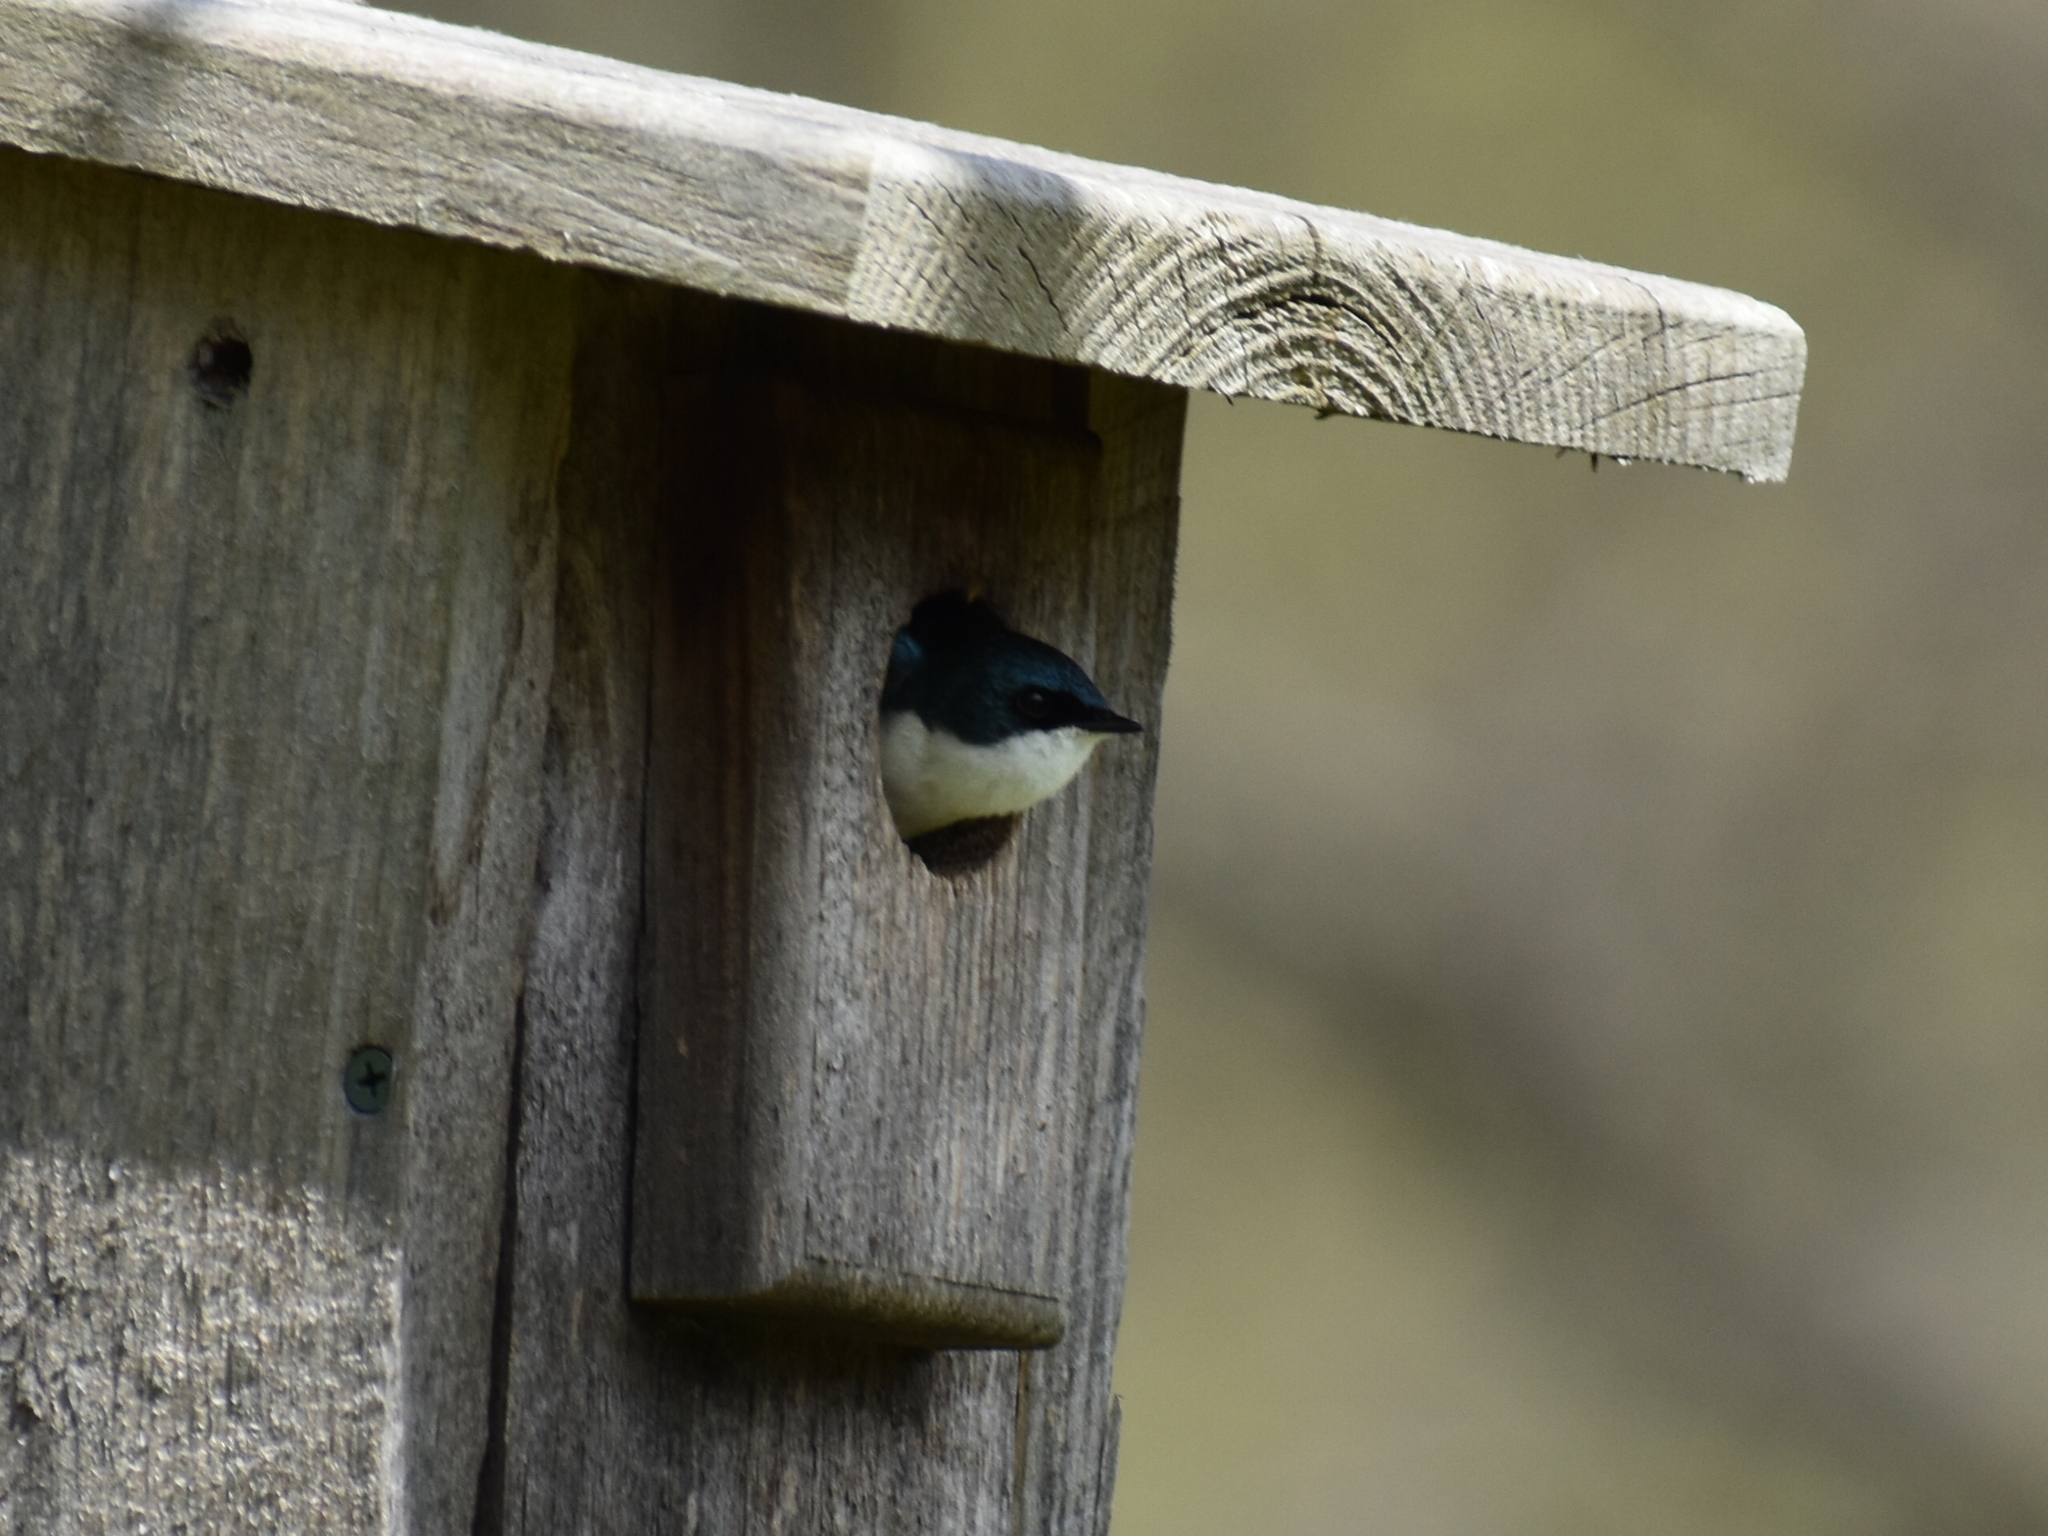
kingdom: Animalia
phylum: Chordata
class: Aves
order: Passeriformes
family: Hirundinidae
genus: Tachycineta
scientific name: Tachycineta bicolor
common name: Tree swallow
